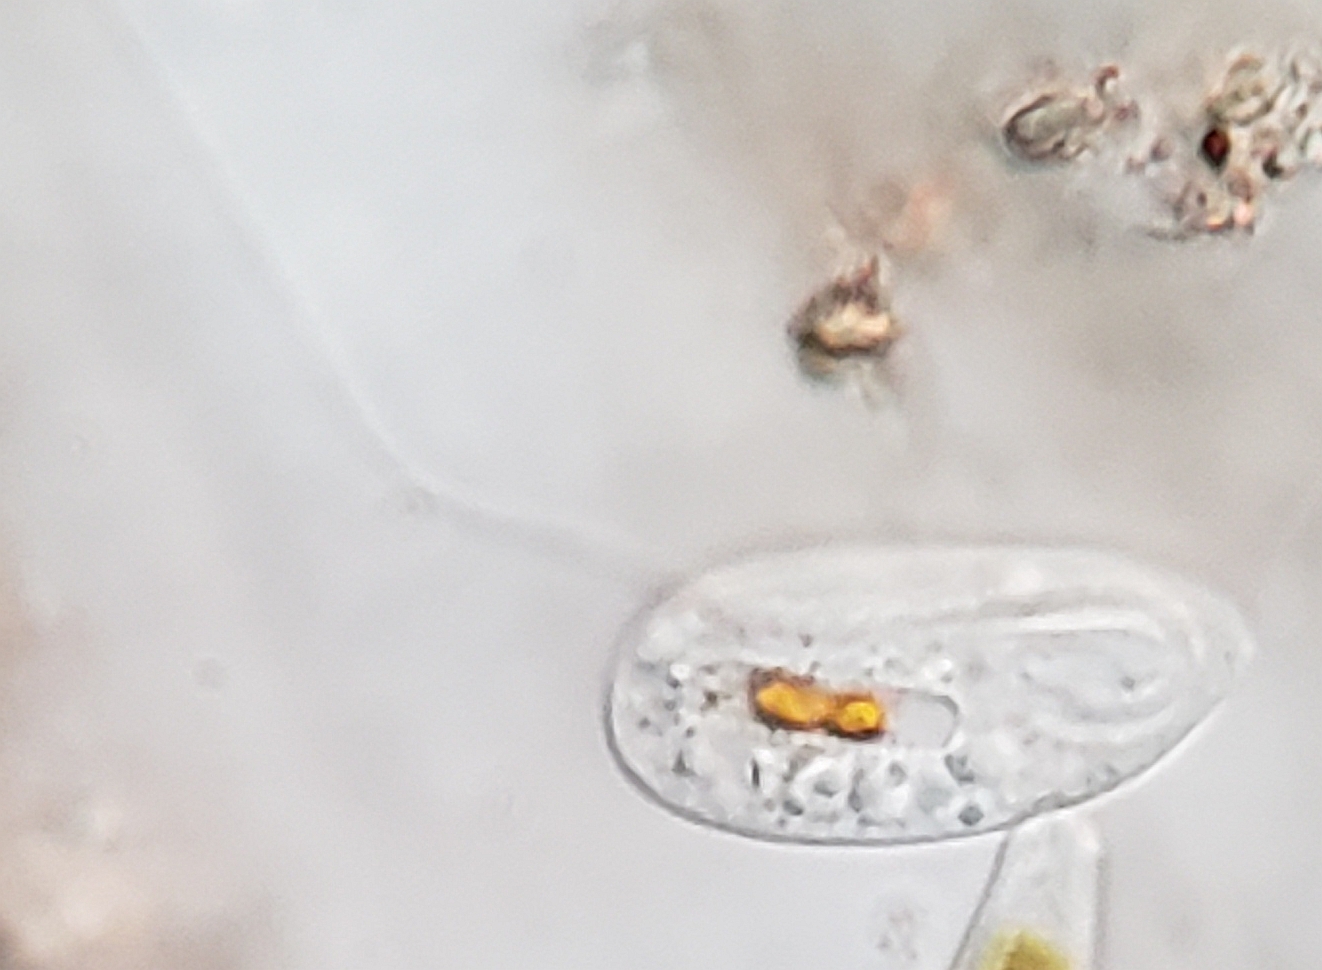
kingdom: Protozoa
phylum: Euglenozoa
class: Peranemea
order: Anisonemida
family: Anisonemidae
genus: Anisonema
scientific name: Anisonema acinus
